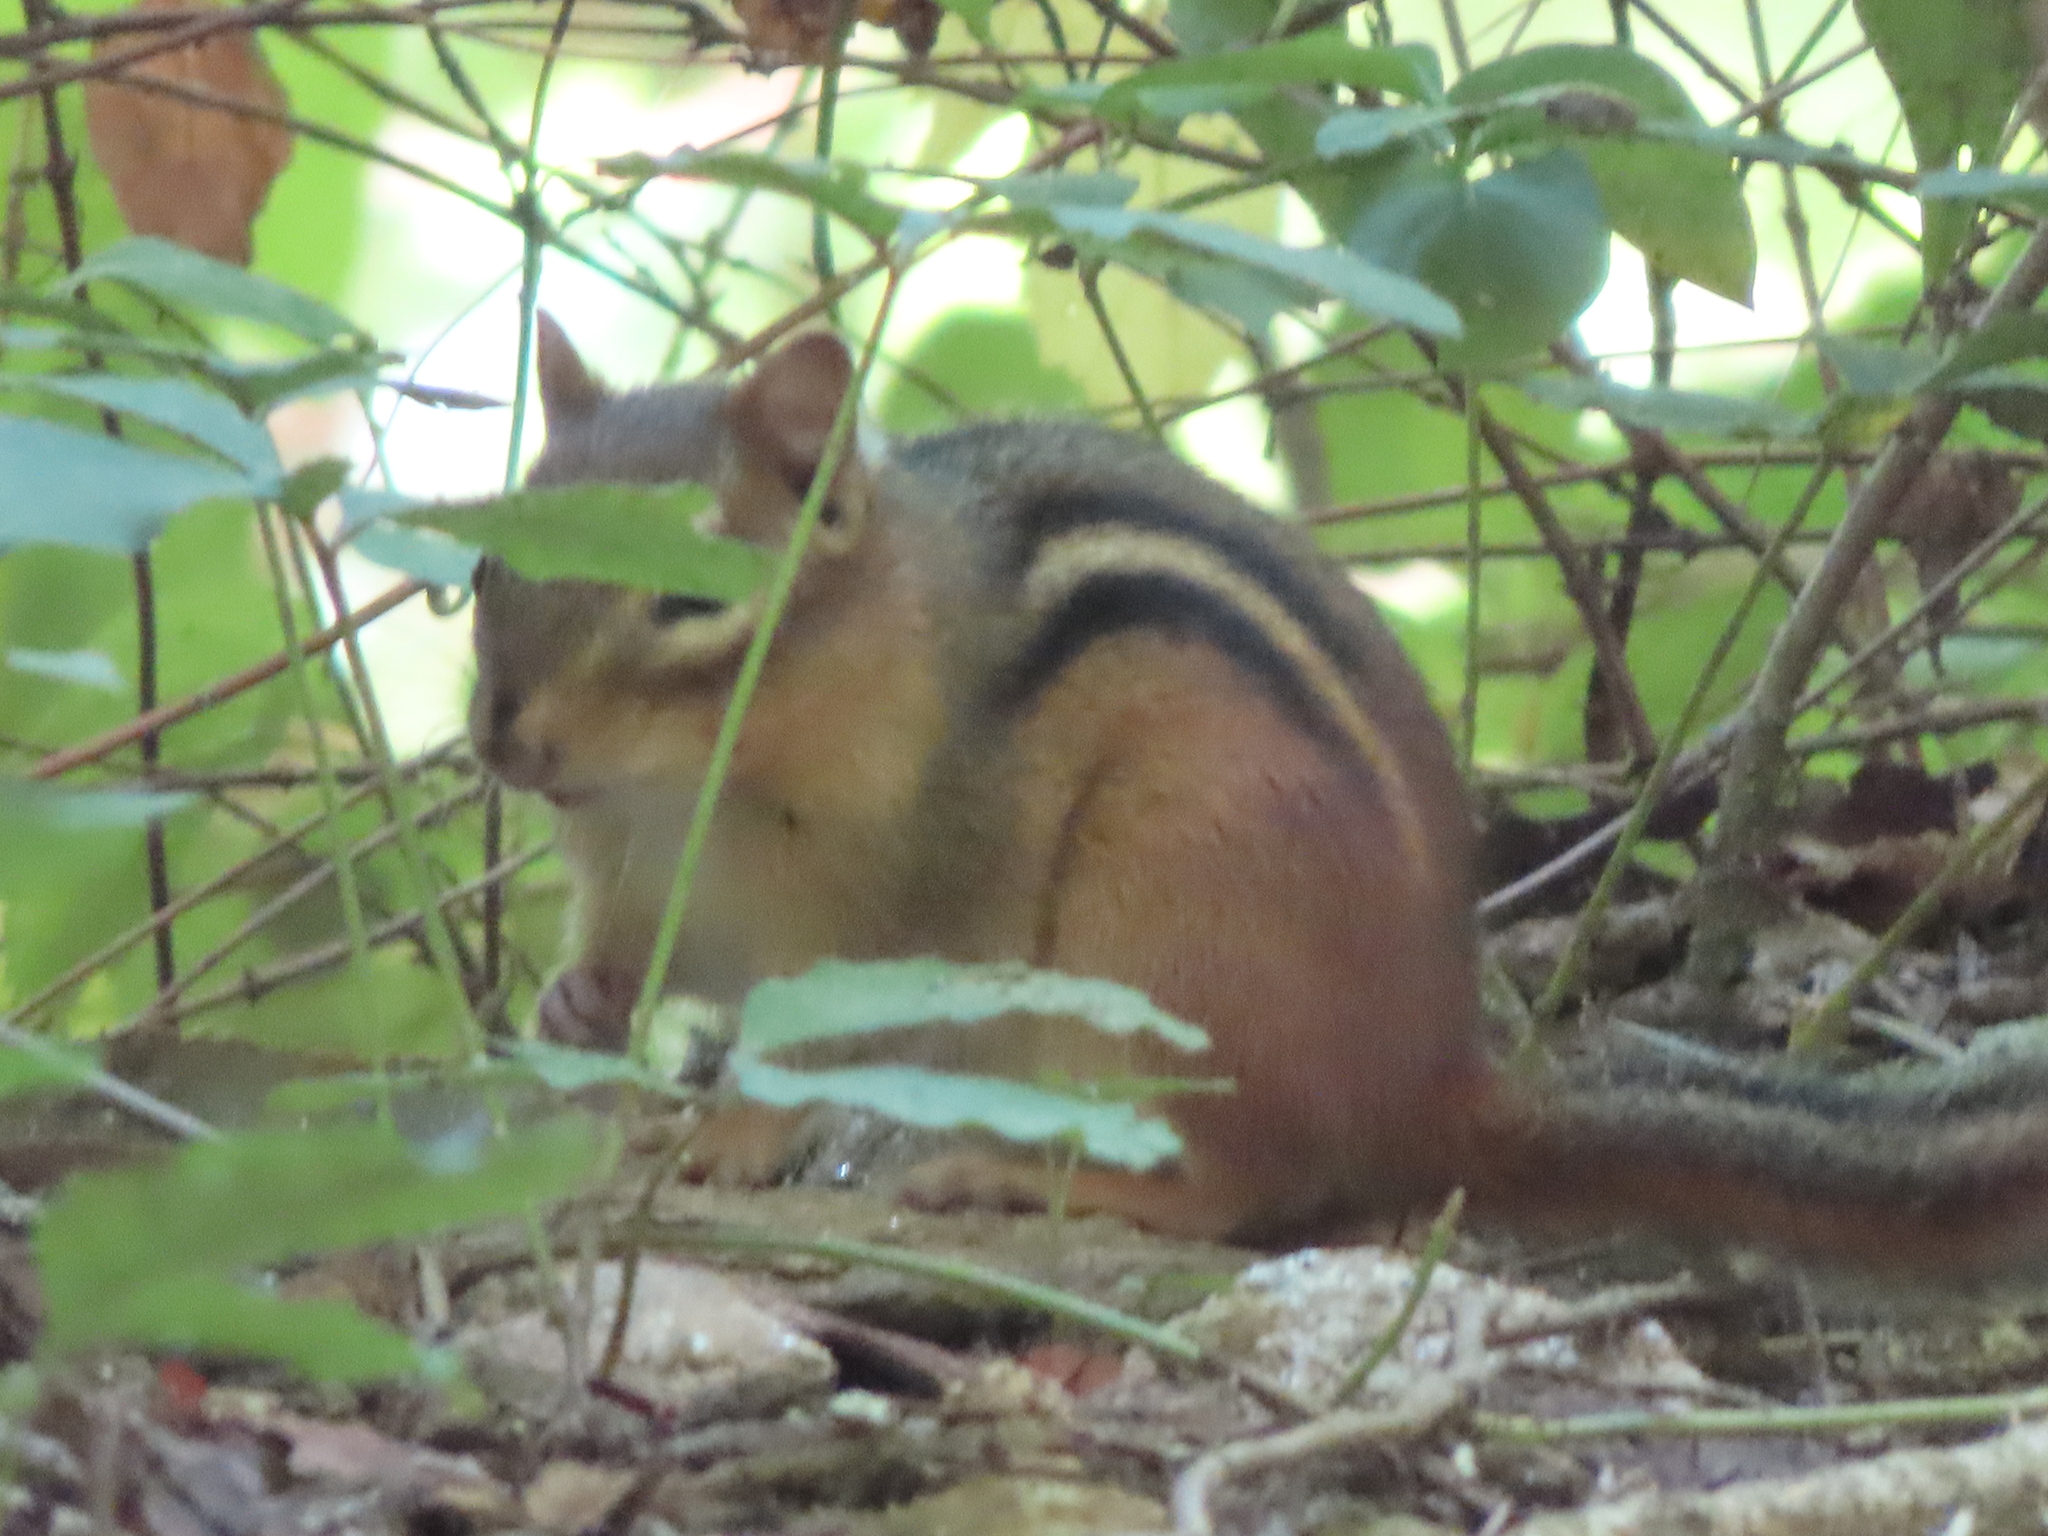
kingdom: Animalia
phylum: Chordata
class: Mammalia
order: Rodentia
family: Sciuridae
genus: Tamias
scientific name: Tamias striatus
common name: Eastern chipmunk
